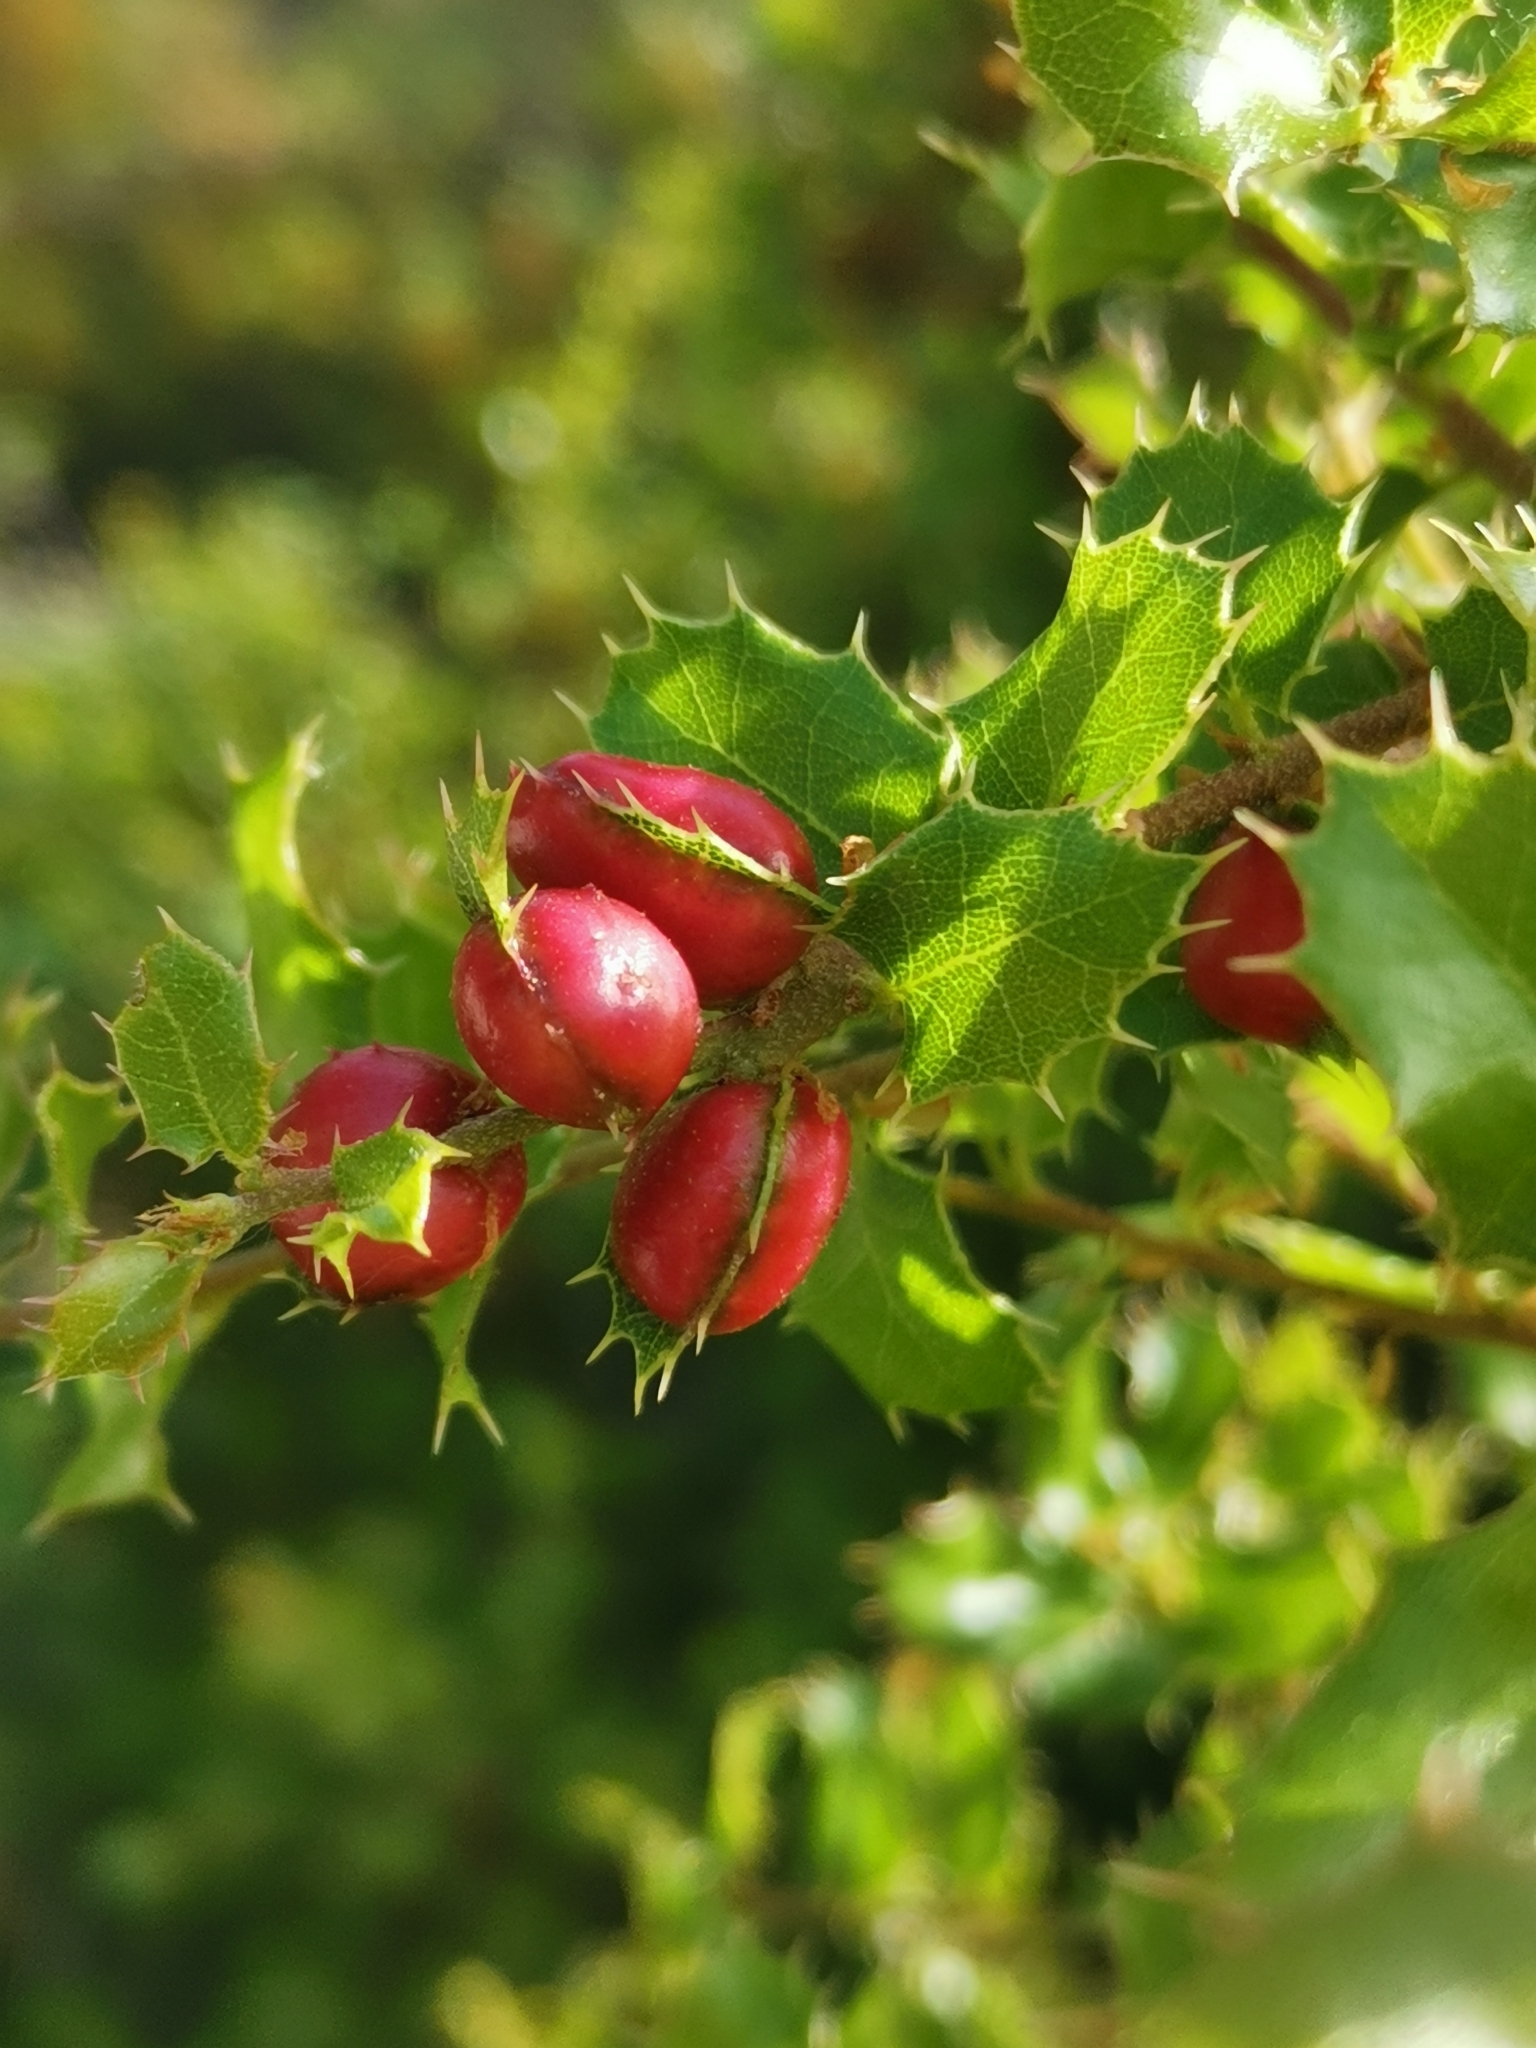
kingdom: Animalia
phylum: Arthropoda
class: Insecta
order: Hymenoptera
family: Cynipidae
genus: Plagiotrochus
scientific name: Plagiotrochus quercusilicis
